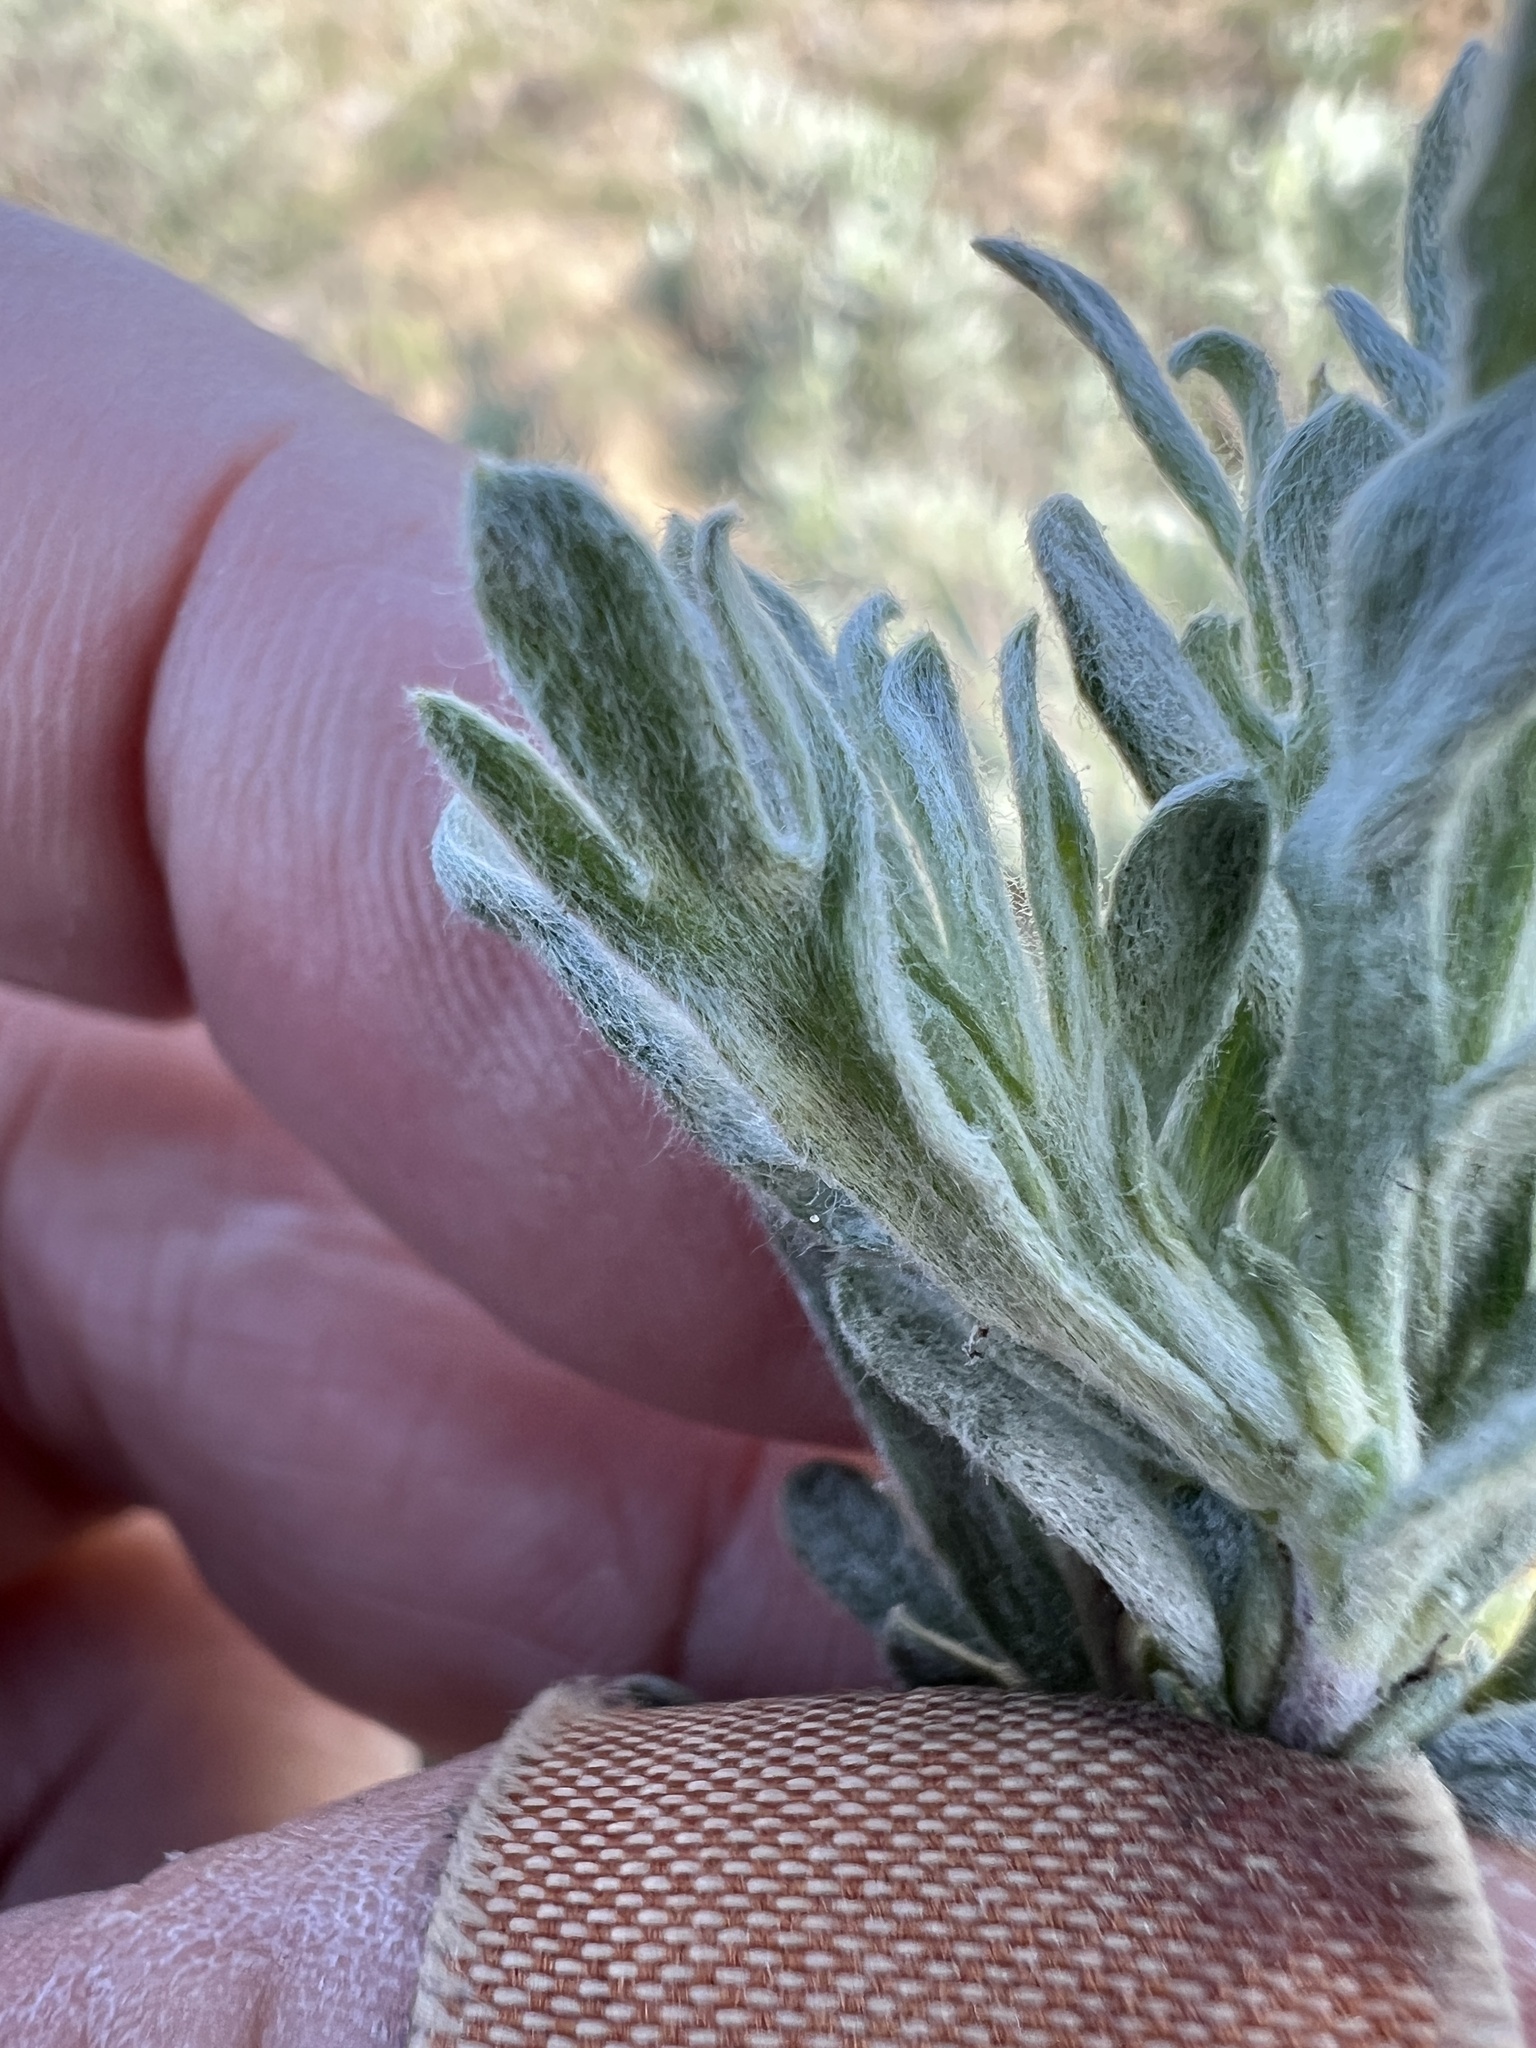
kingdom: Plantae
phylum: Tracheophyta
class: Magnoliopsida
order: Asterales
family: Asteraceae
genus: Artemisia
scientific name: Artemisia rigida
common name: Scabland sagebrush
